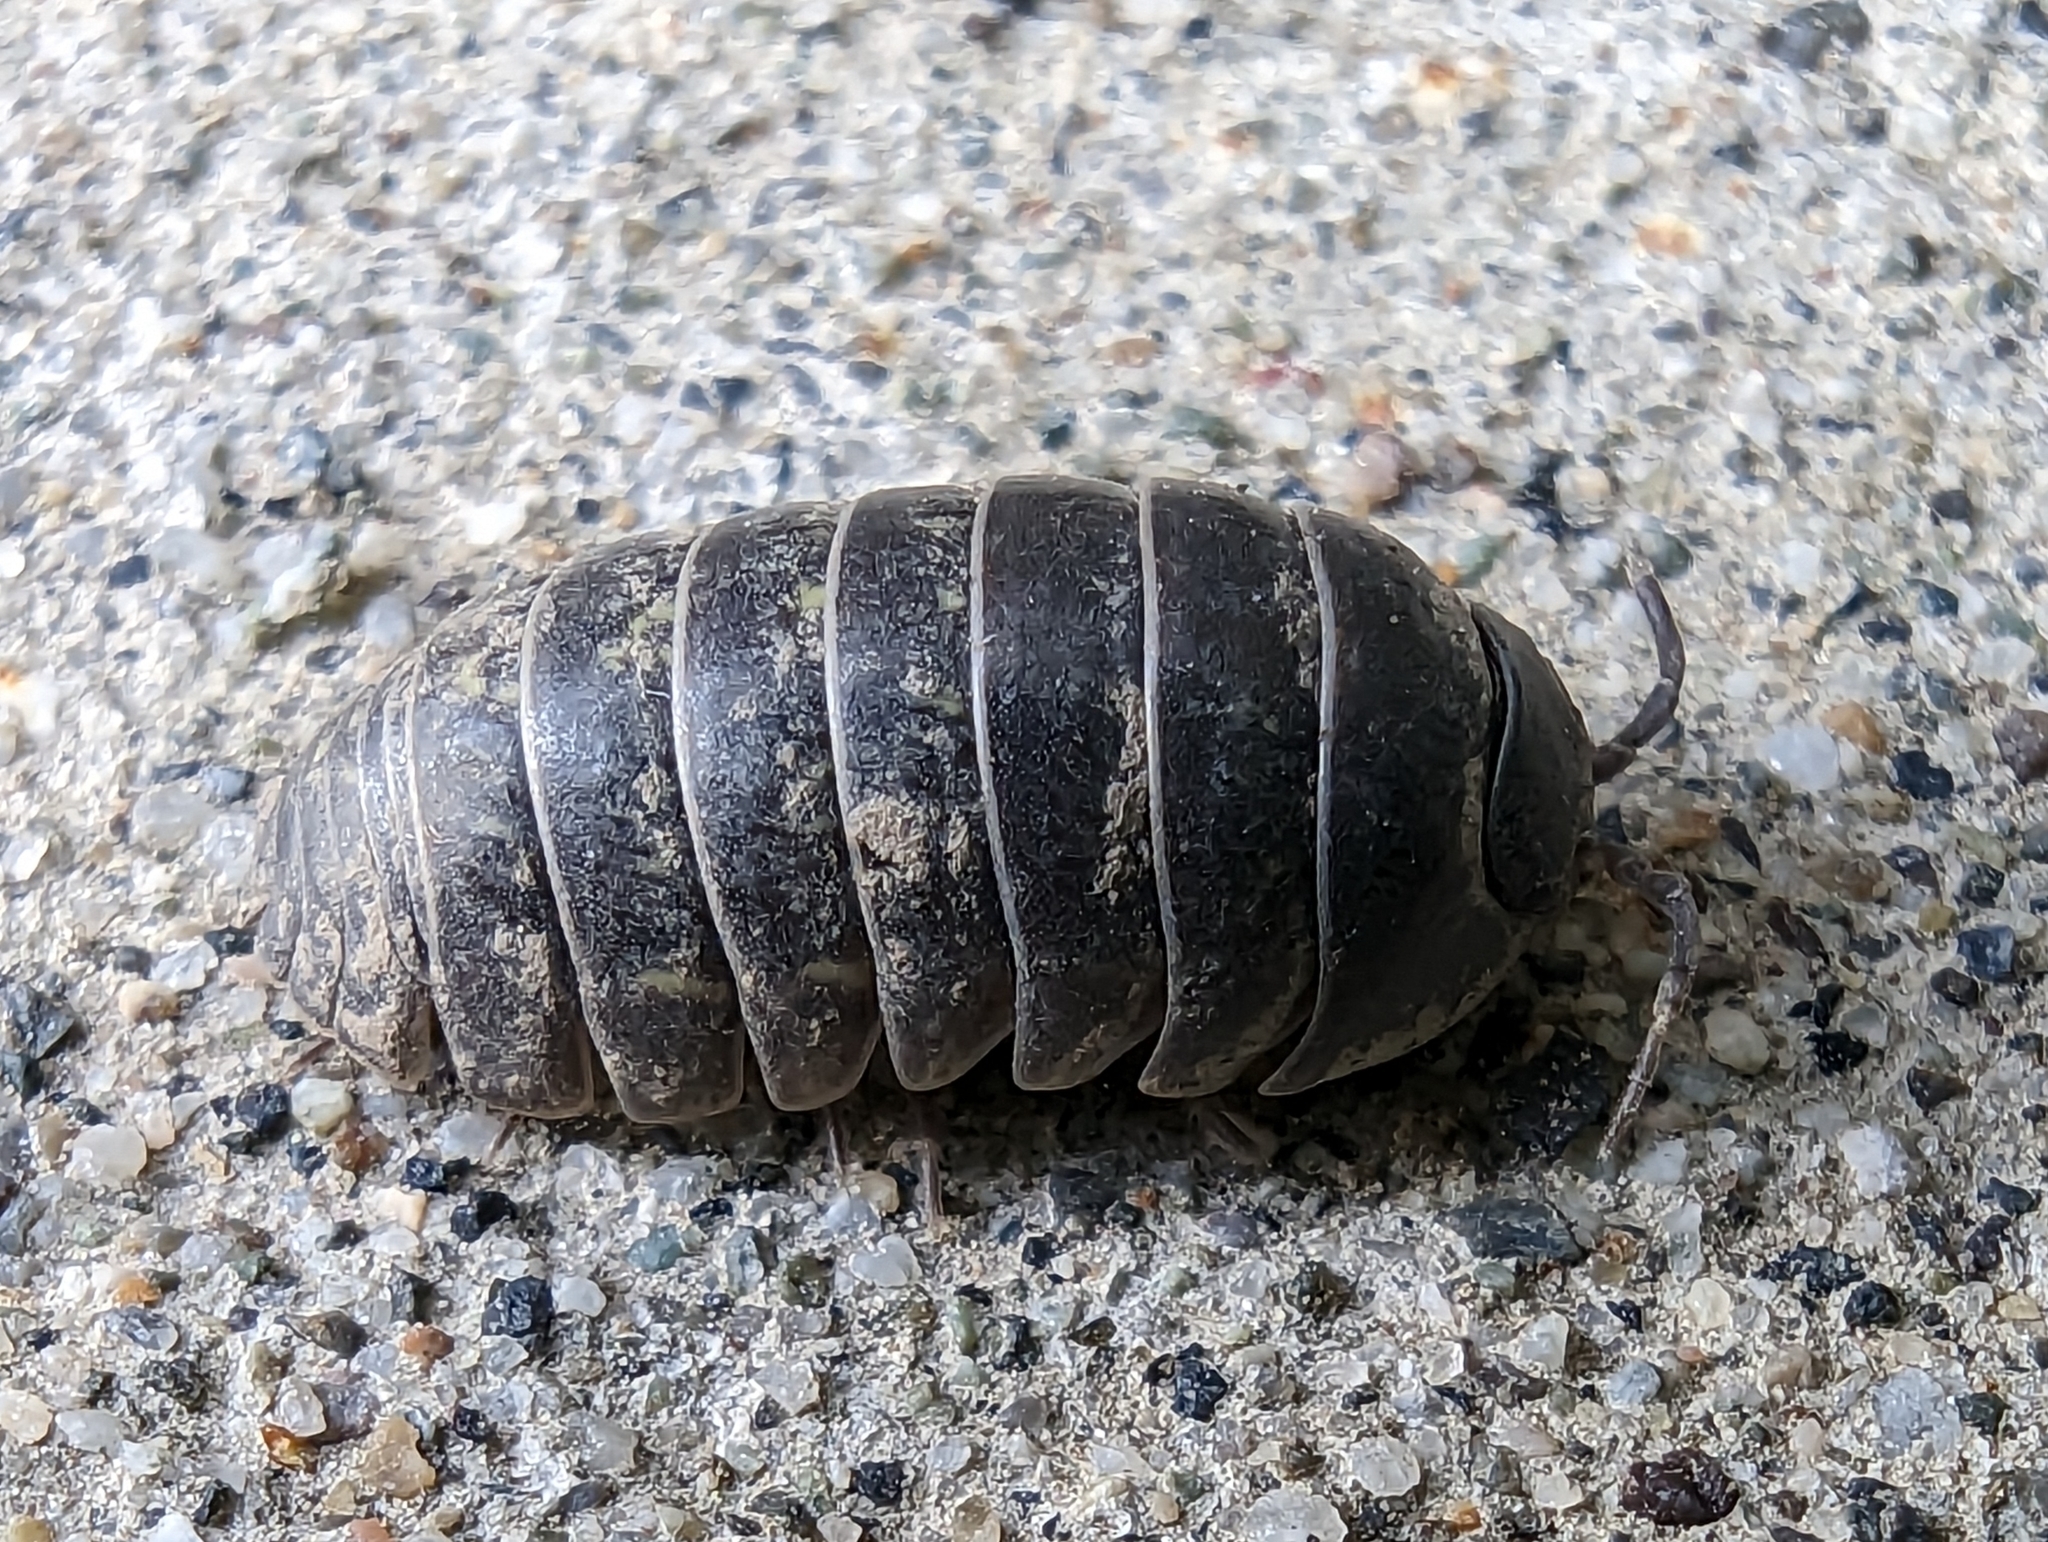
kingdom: Animalia
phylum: Arthropoda
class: Malacostraca
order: Isopoda
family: Armadillidiidae
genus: Armadillidium
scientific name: Armadillidium vulgare
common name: Common pill woodlouse
